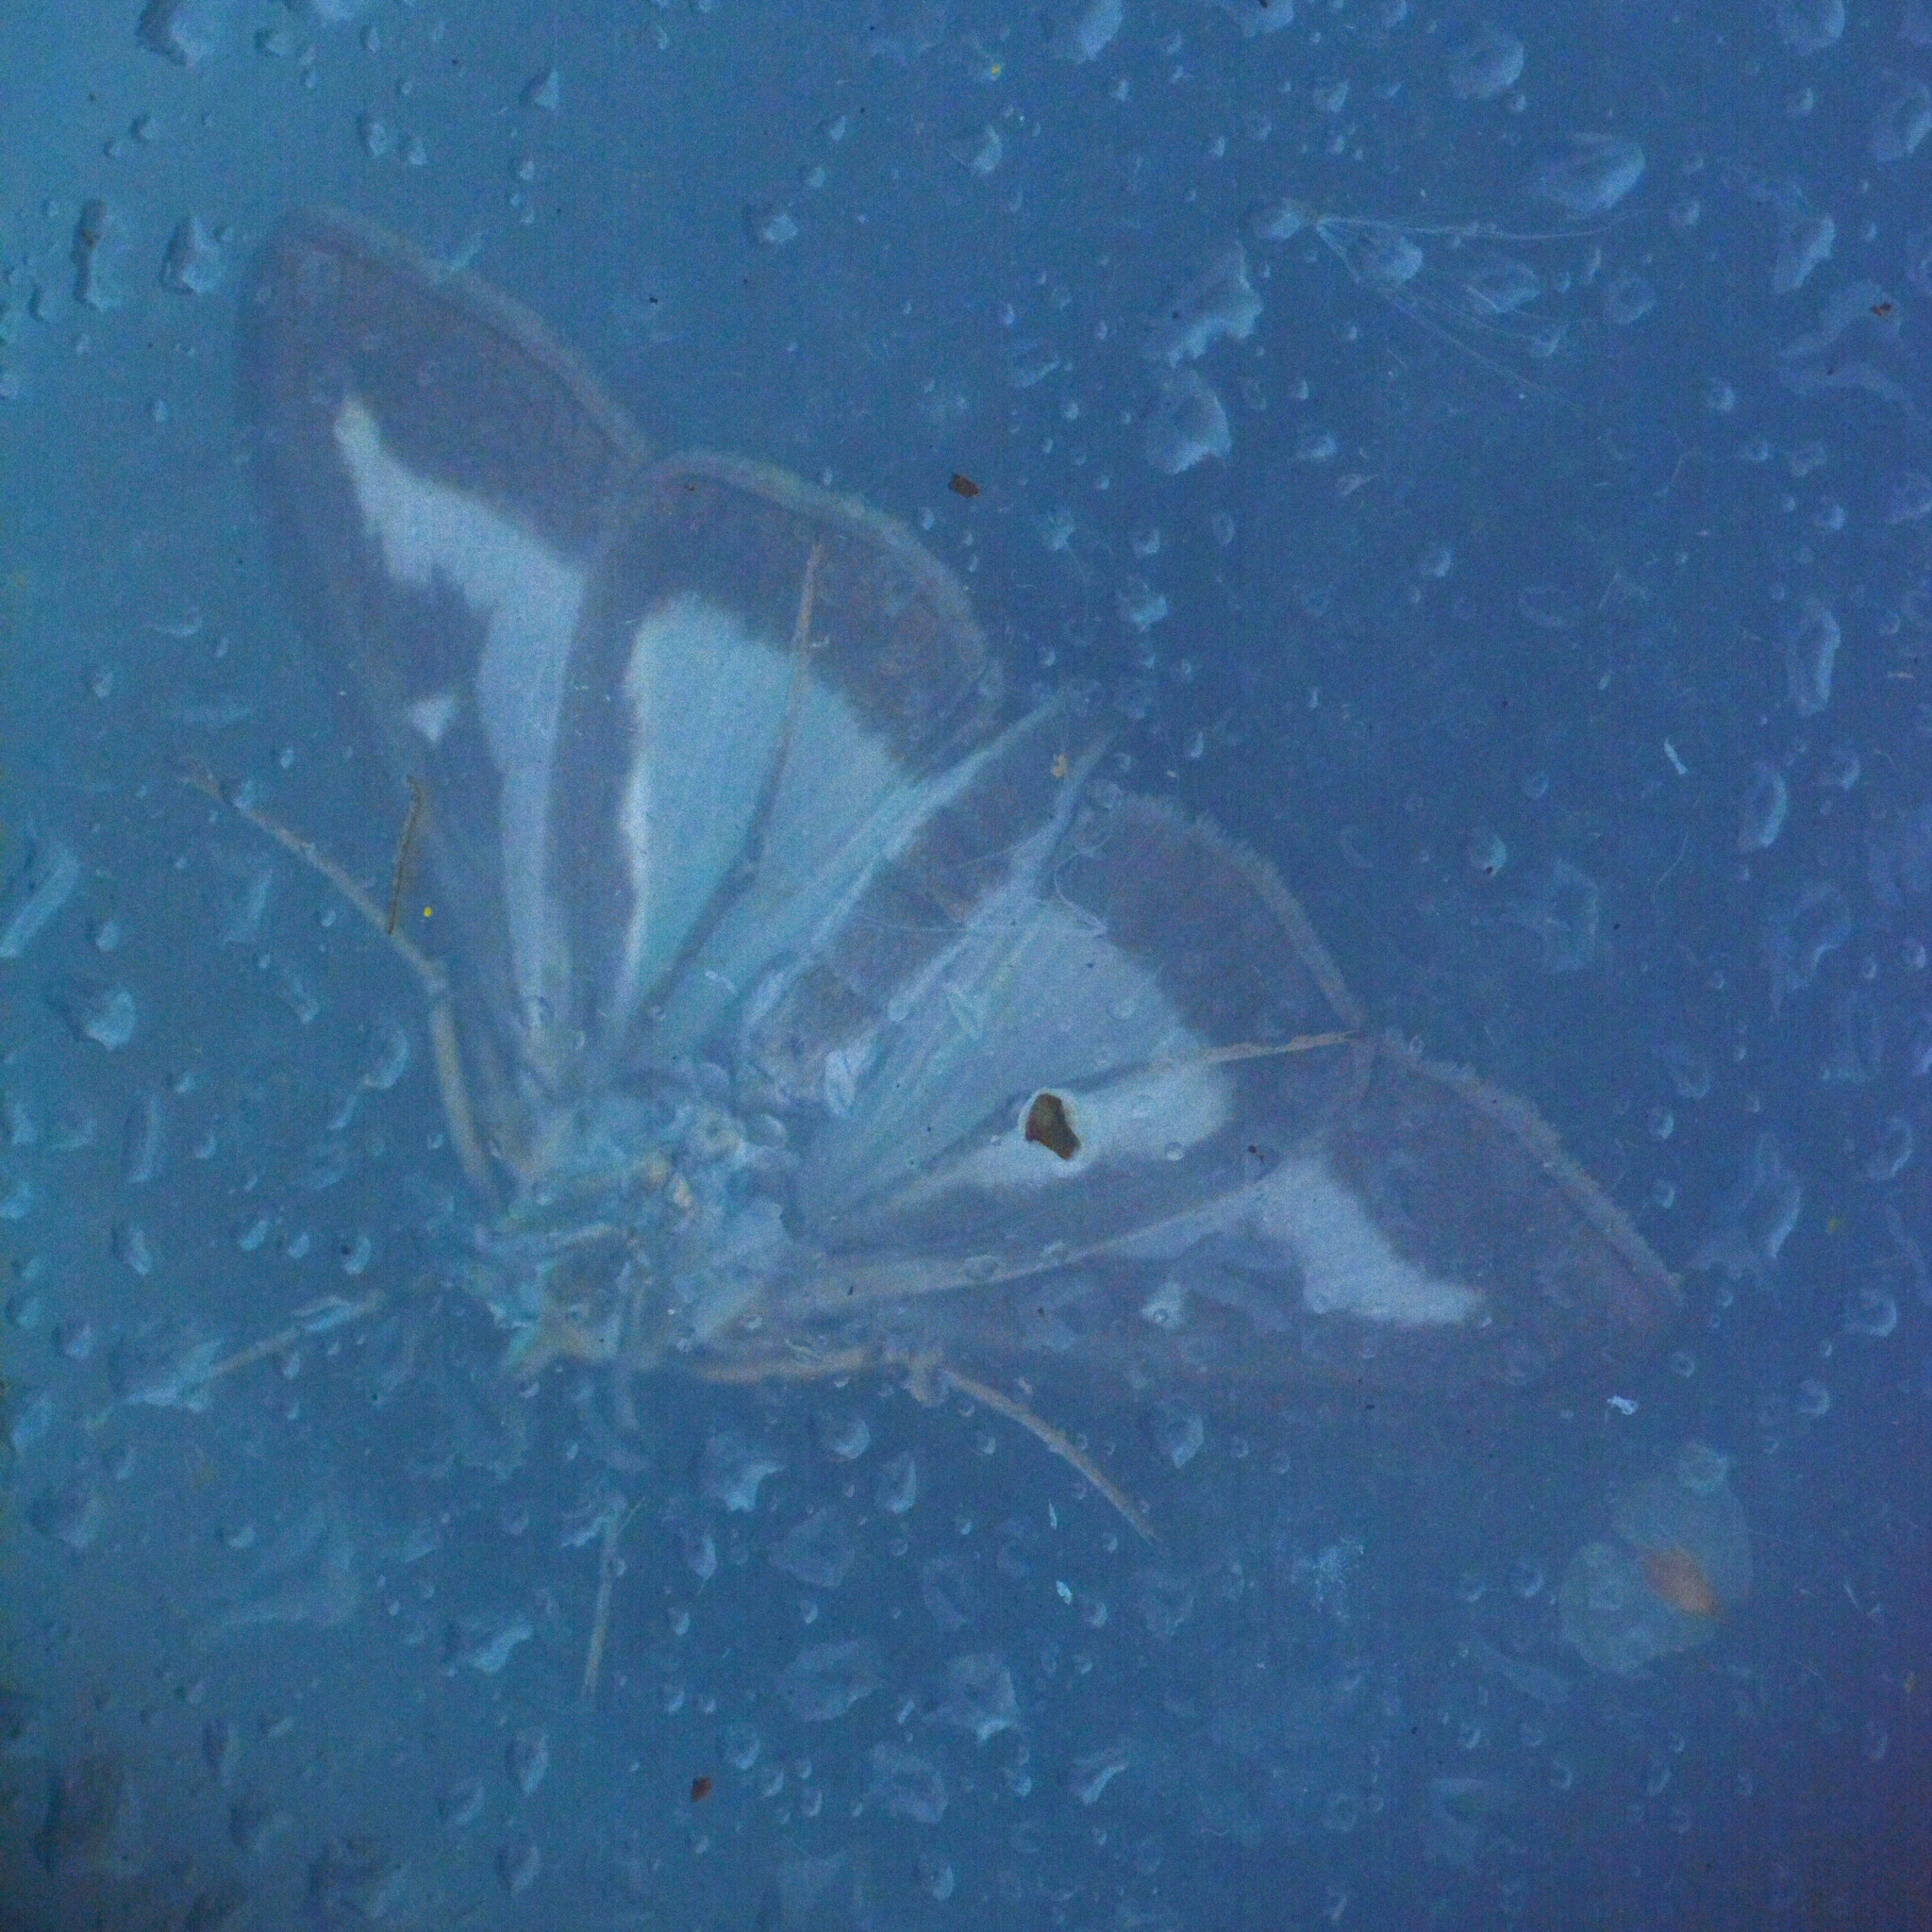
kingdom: Animalia
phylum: Arthropoda
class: Insecta
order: Lepidoptera
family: Crambidae
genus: Cydalima
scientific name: Cydalima perspectalis
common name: Box tree moth
